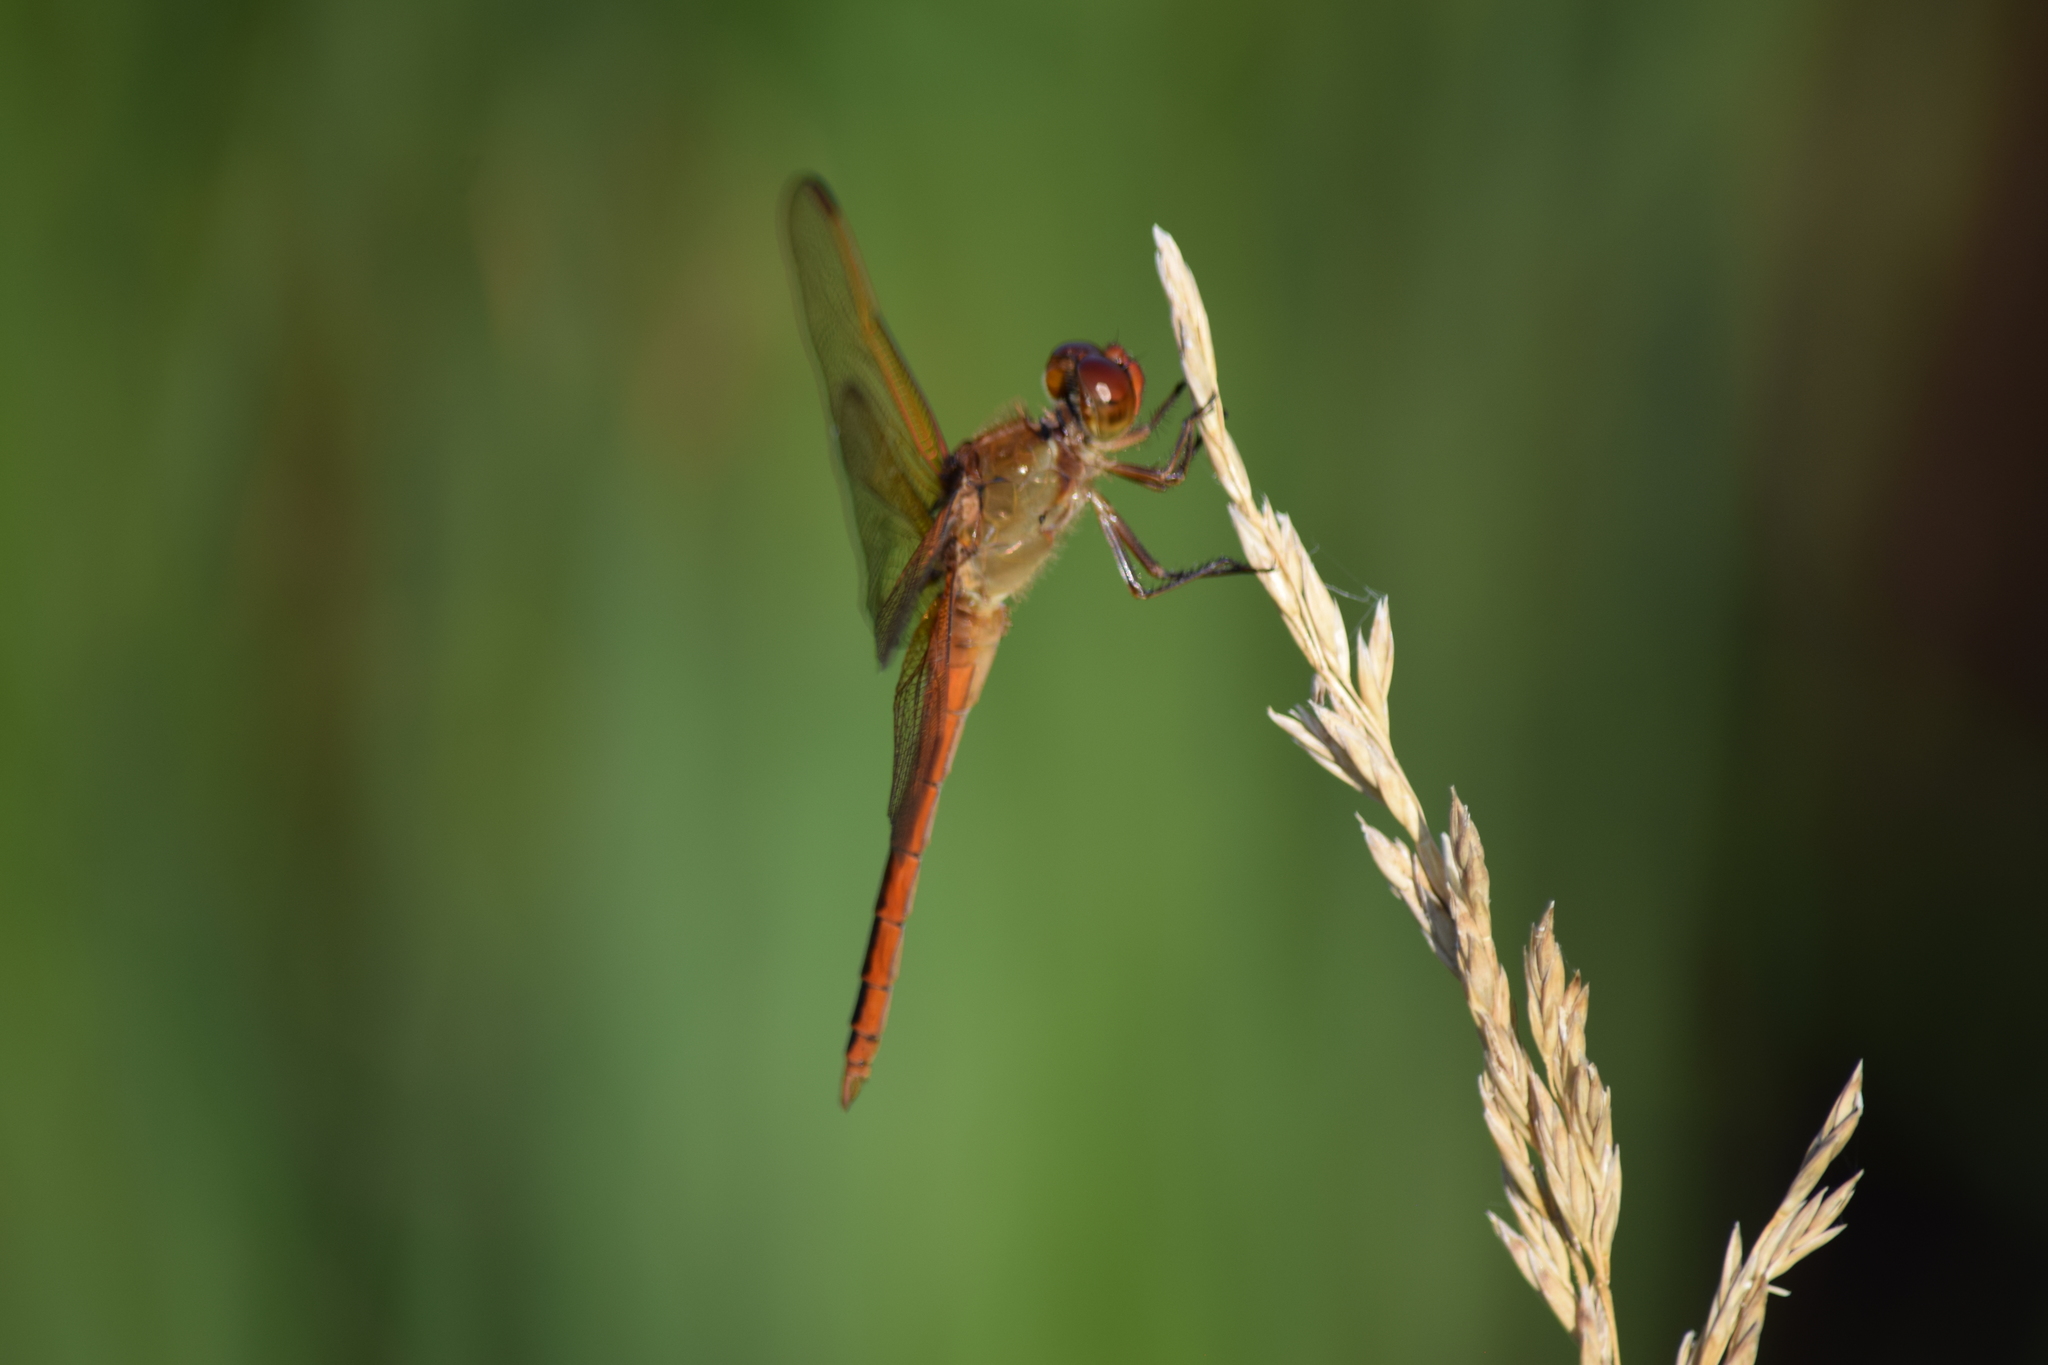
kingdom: Animalia
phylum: Arthropoda
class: Insecta
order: Odonata
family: Libellulidae
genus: Libellula
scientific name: Libellula needhami
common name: Needham's skimmer
